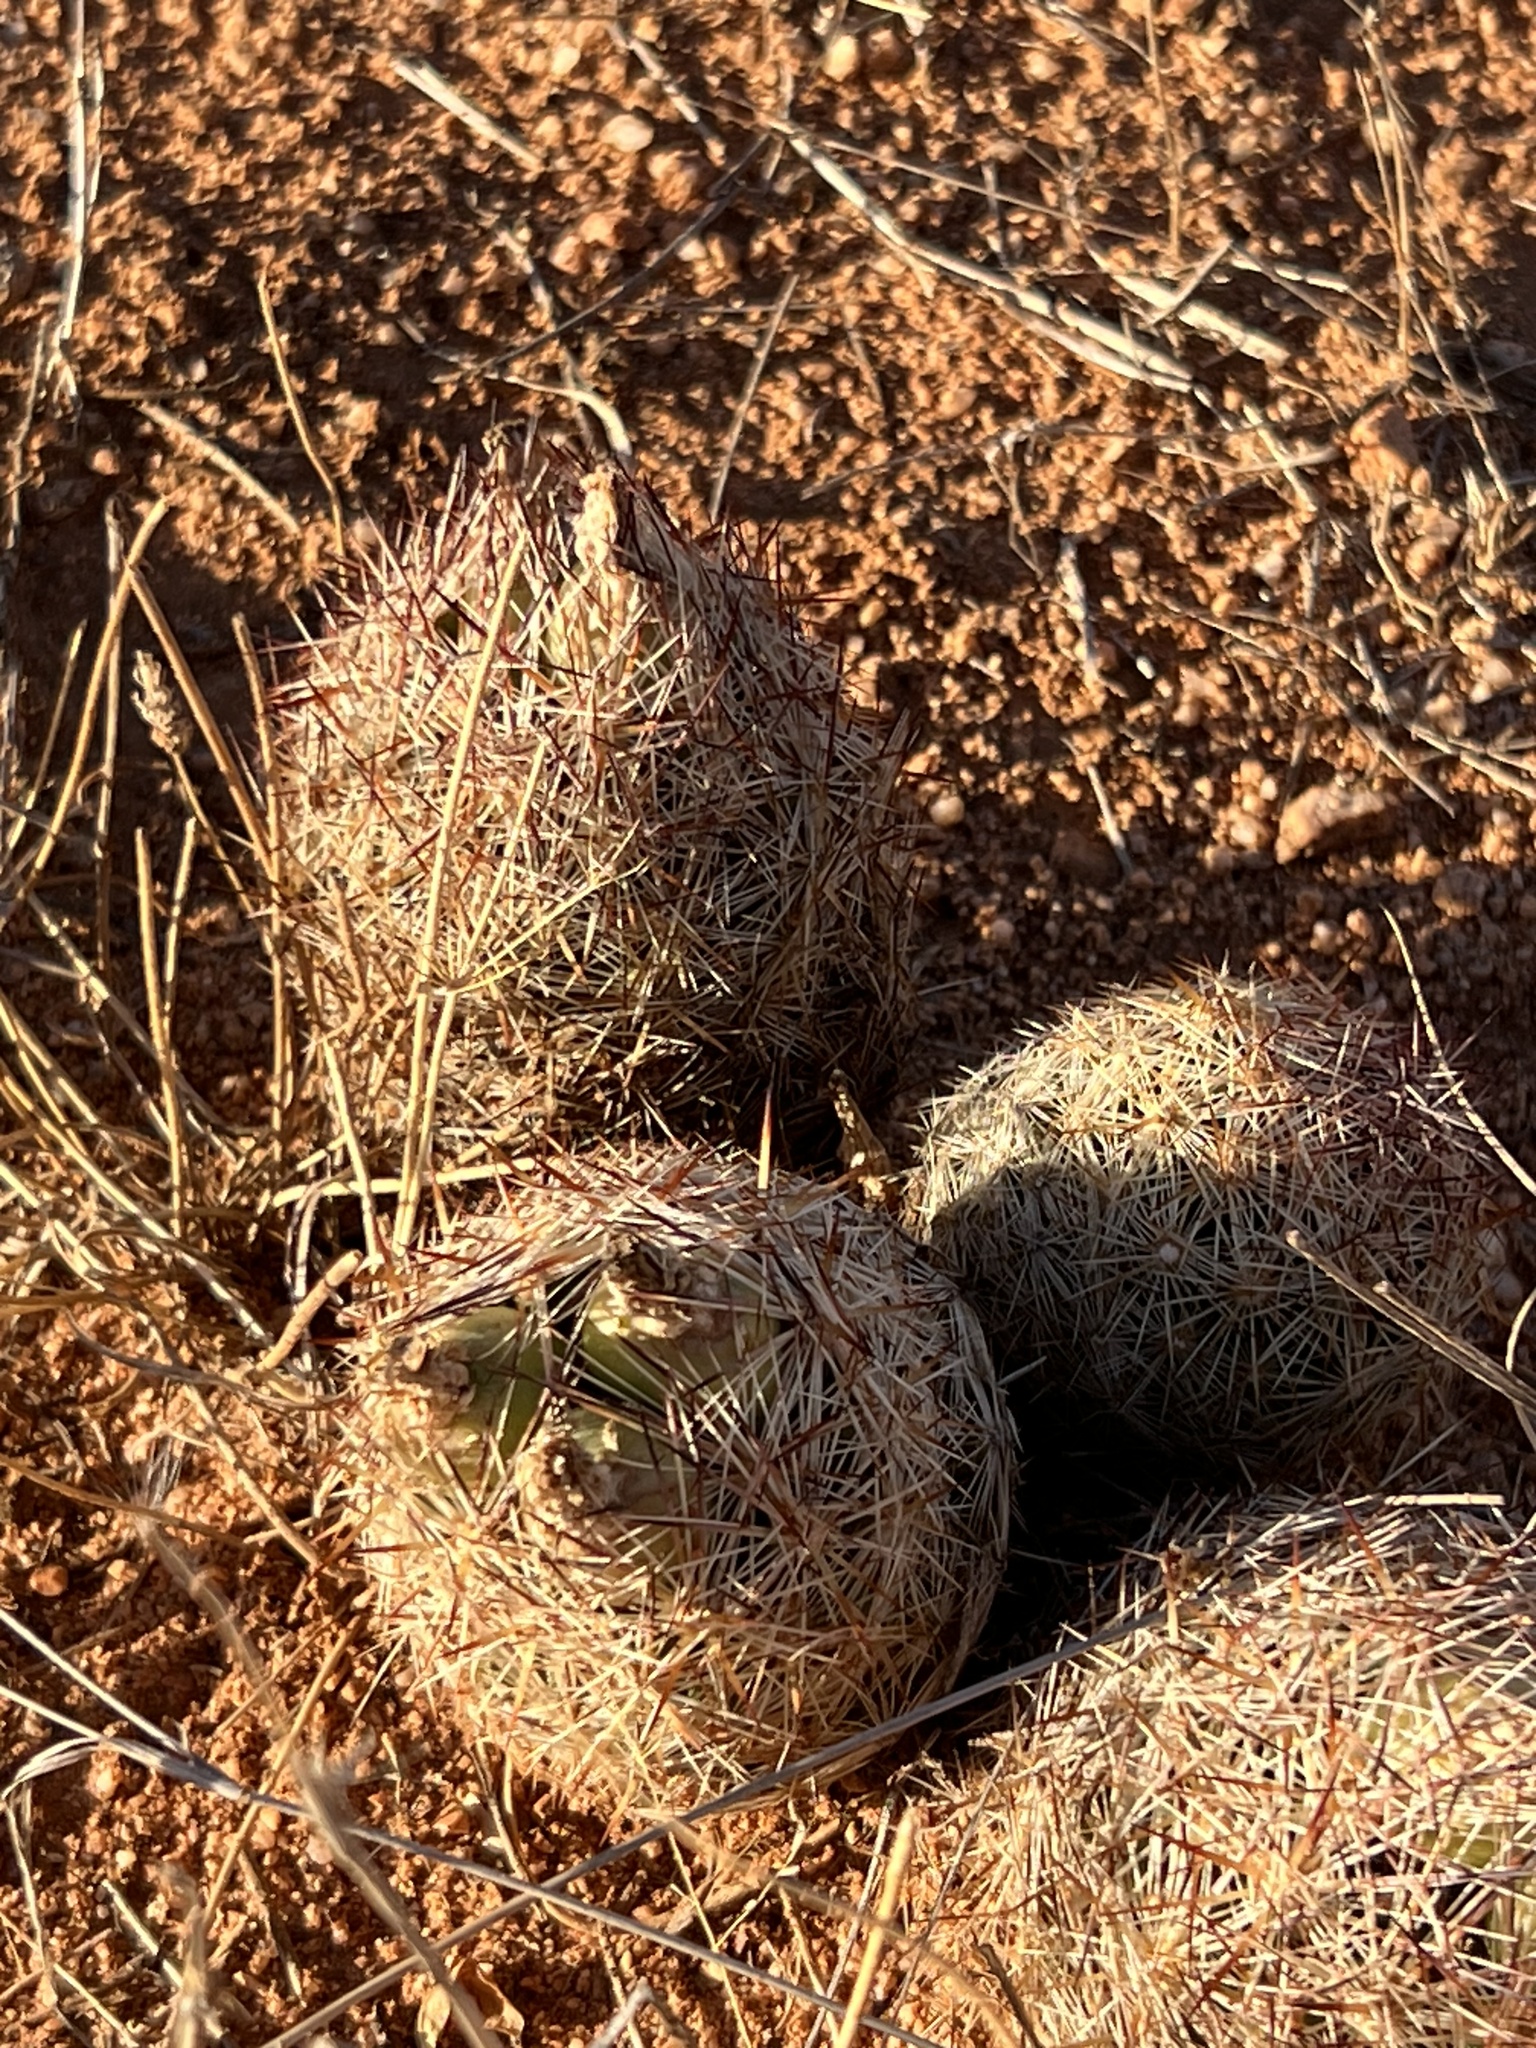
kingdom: Plantae
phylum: Tracheophyta
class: Magnoliopsida
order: Caryophyllales
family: Cactaceae
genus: Pelecyphora
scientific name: Pelecyphora vivipara
